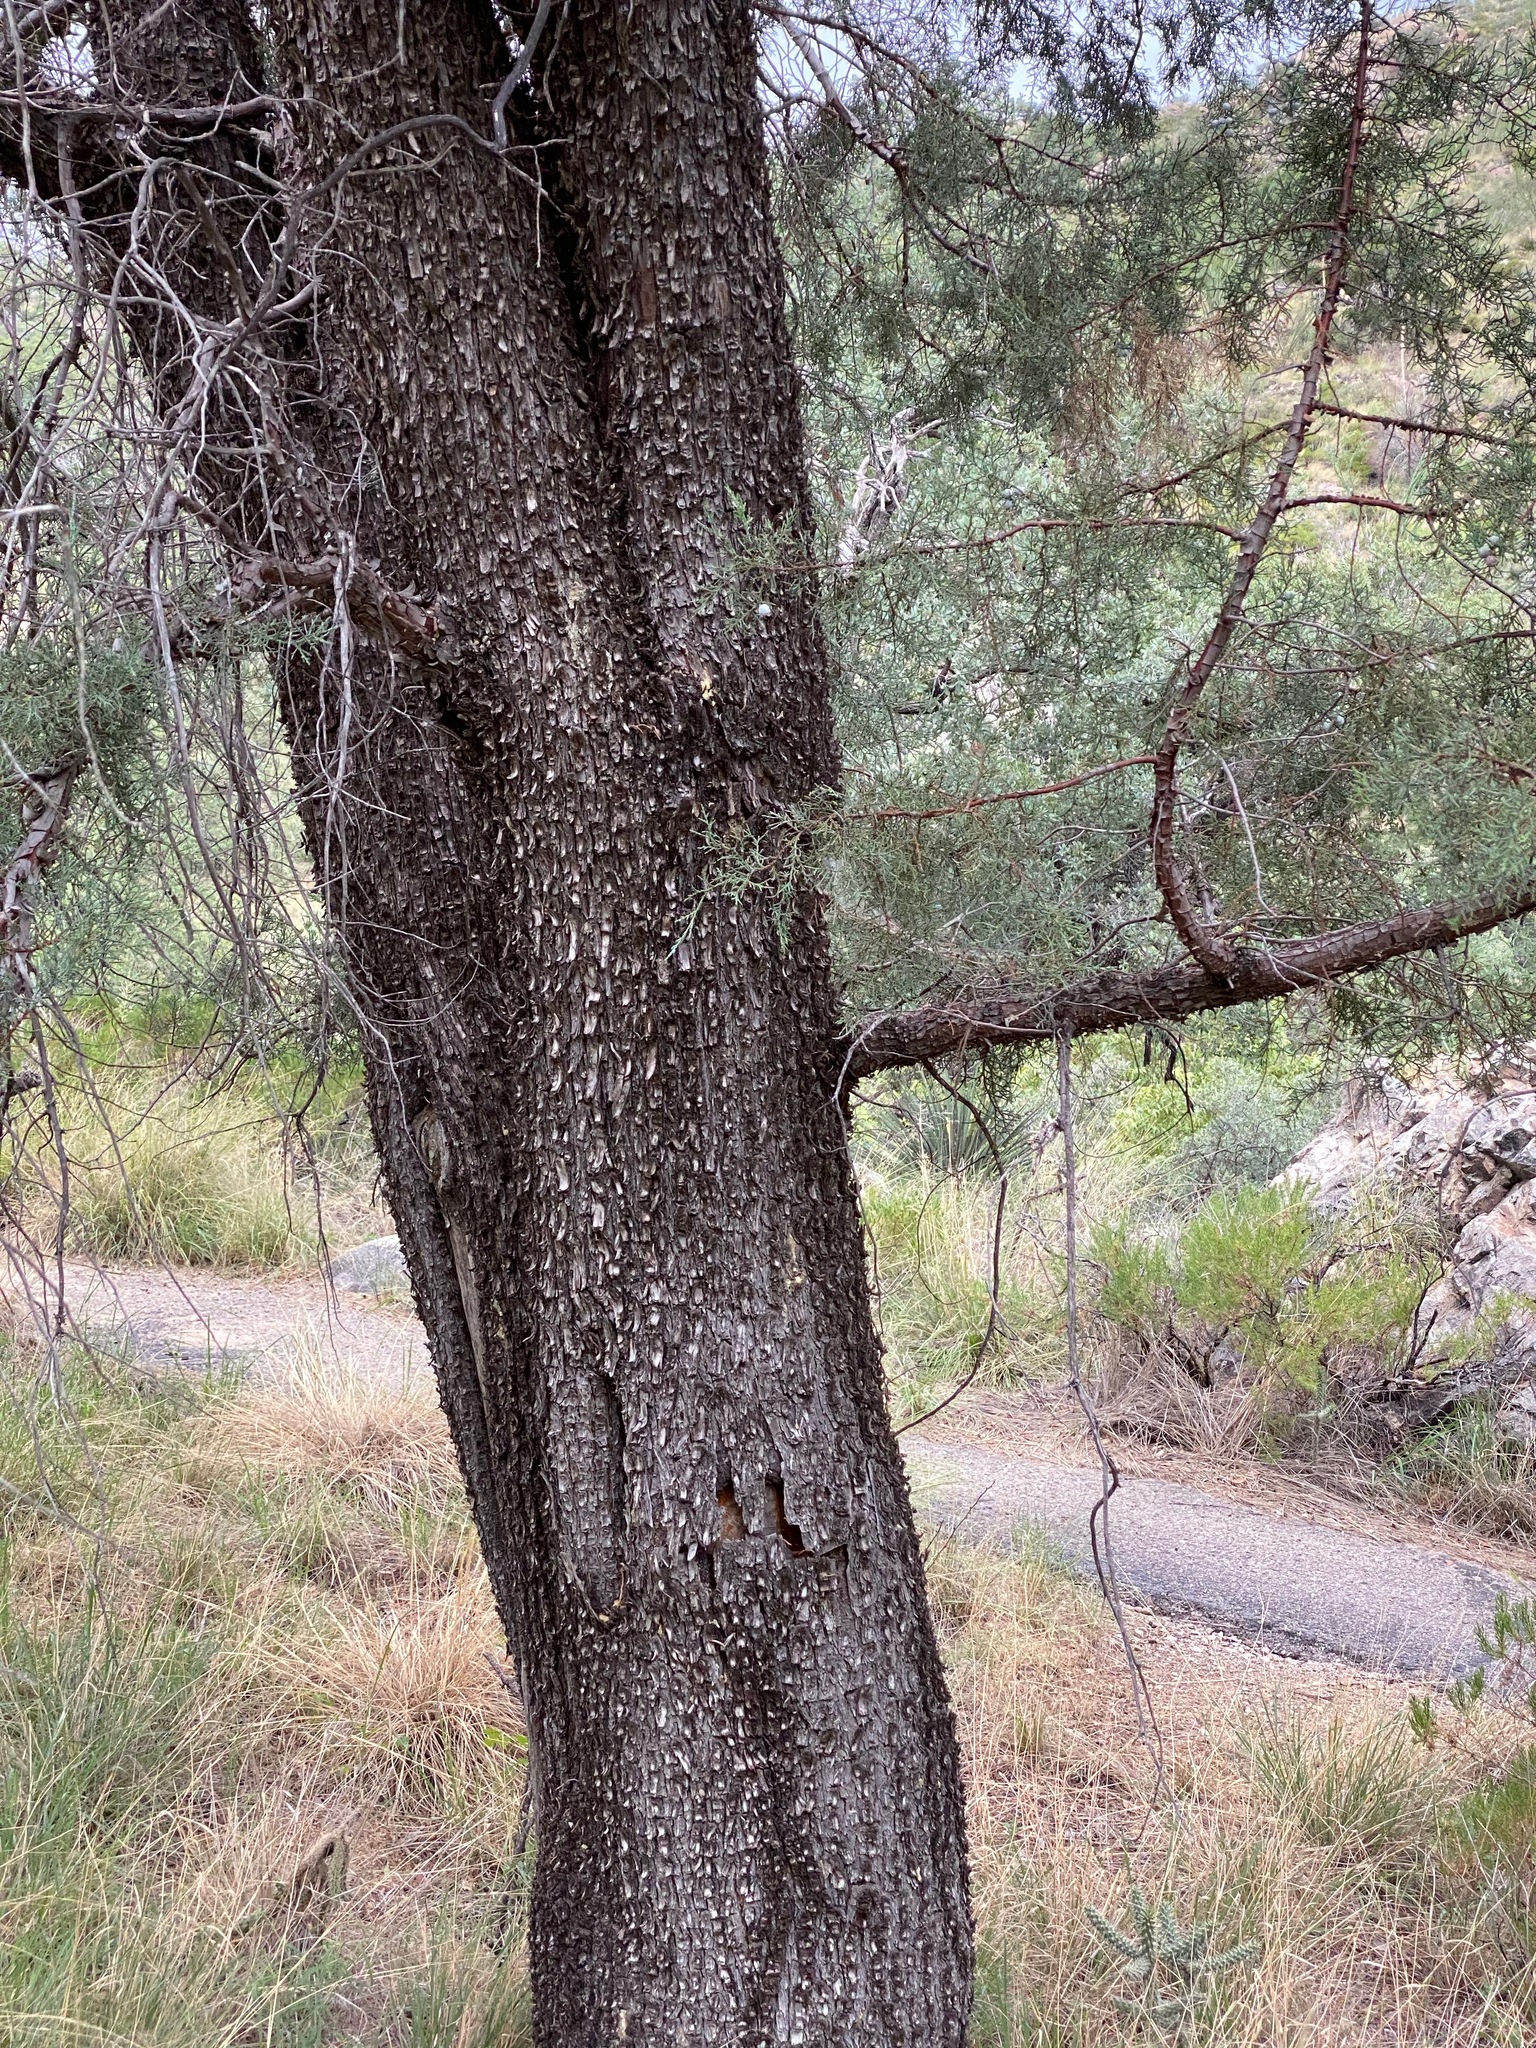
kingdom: Plantae
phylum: Tracheophyta
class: Pinopsida
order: Pinales
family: Cupressaceae
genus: Juniperus
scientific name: Juniperus deppeana
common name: Alligator juniper
